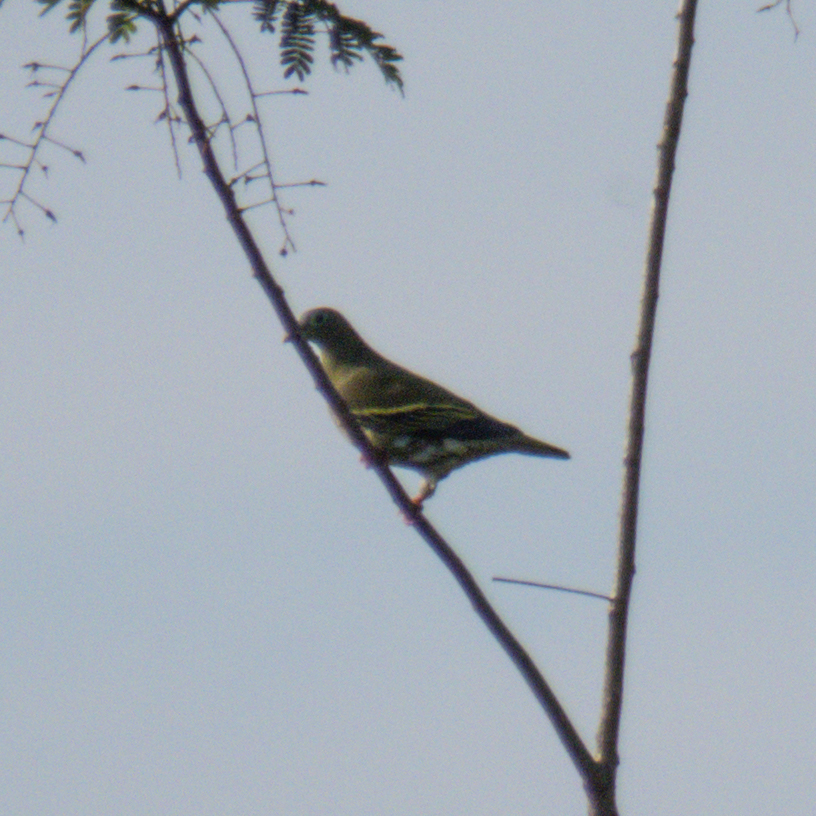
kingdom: Animalia
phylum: Chordata
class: Aves
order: Columbiformes
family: Columbidae
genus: Treron
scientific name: Treron curvirostra
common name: Thick-billed green pigeon
